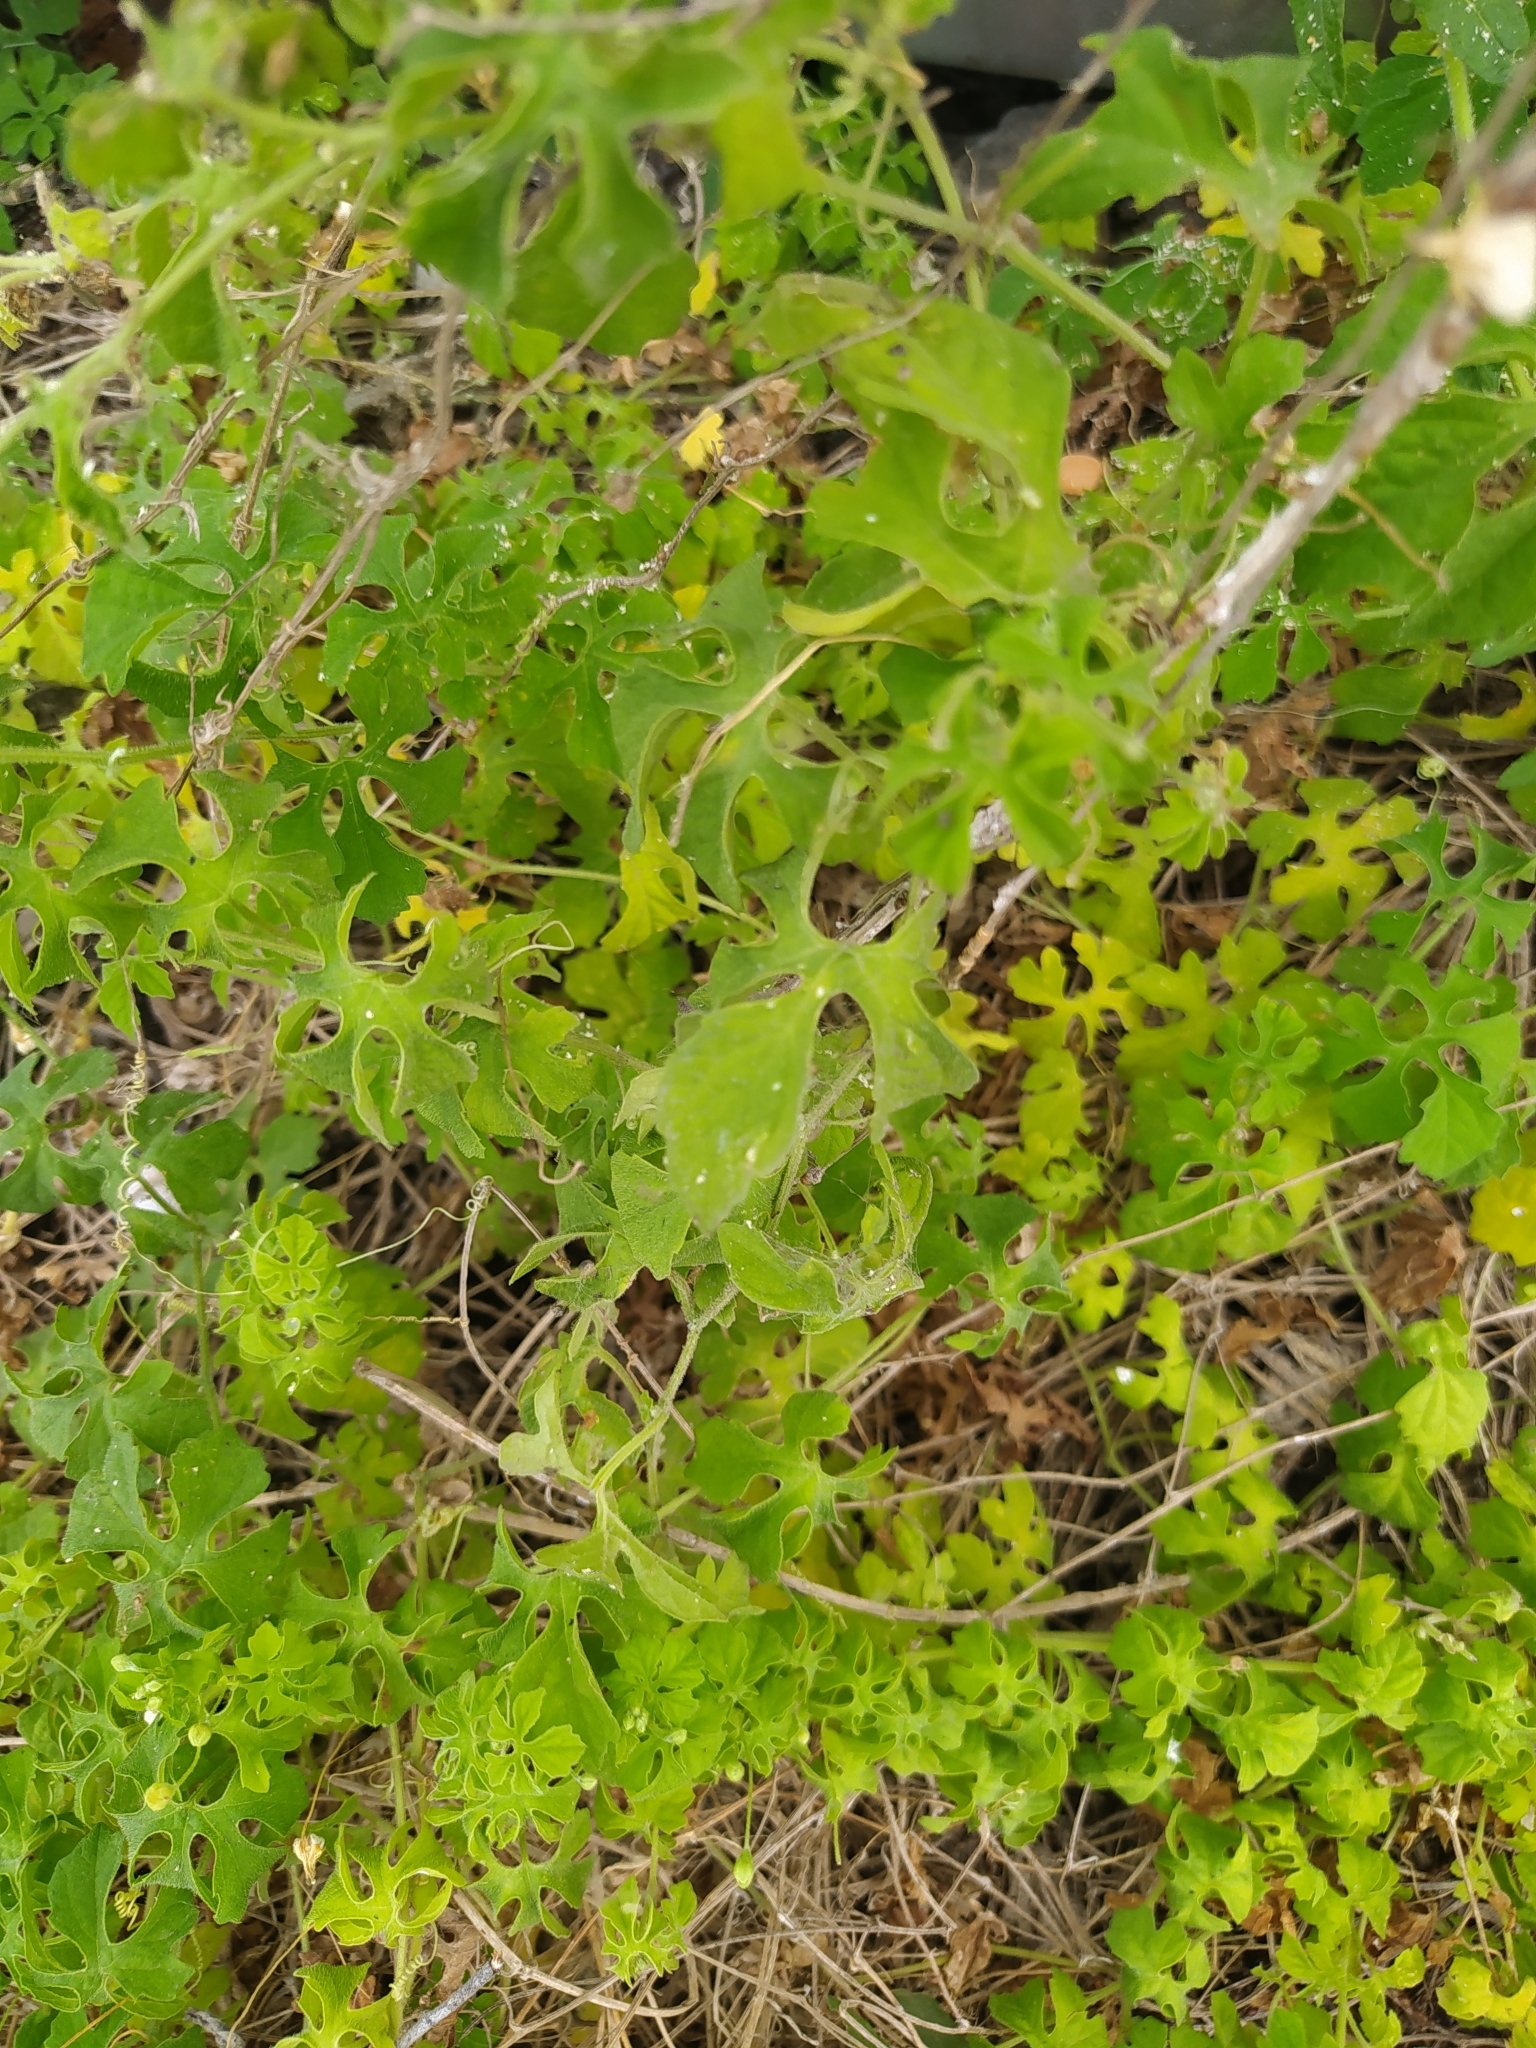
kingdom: Plantae
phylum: Tracheophyta
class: Magnoliopsida
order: Cucurbitales
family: Cucurbitaceae
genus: Momordica
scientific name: Momordica charantia
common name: Balsampear
